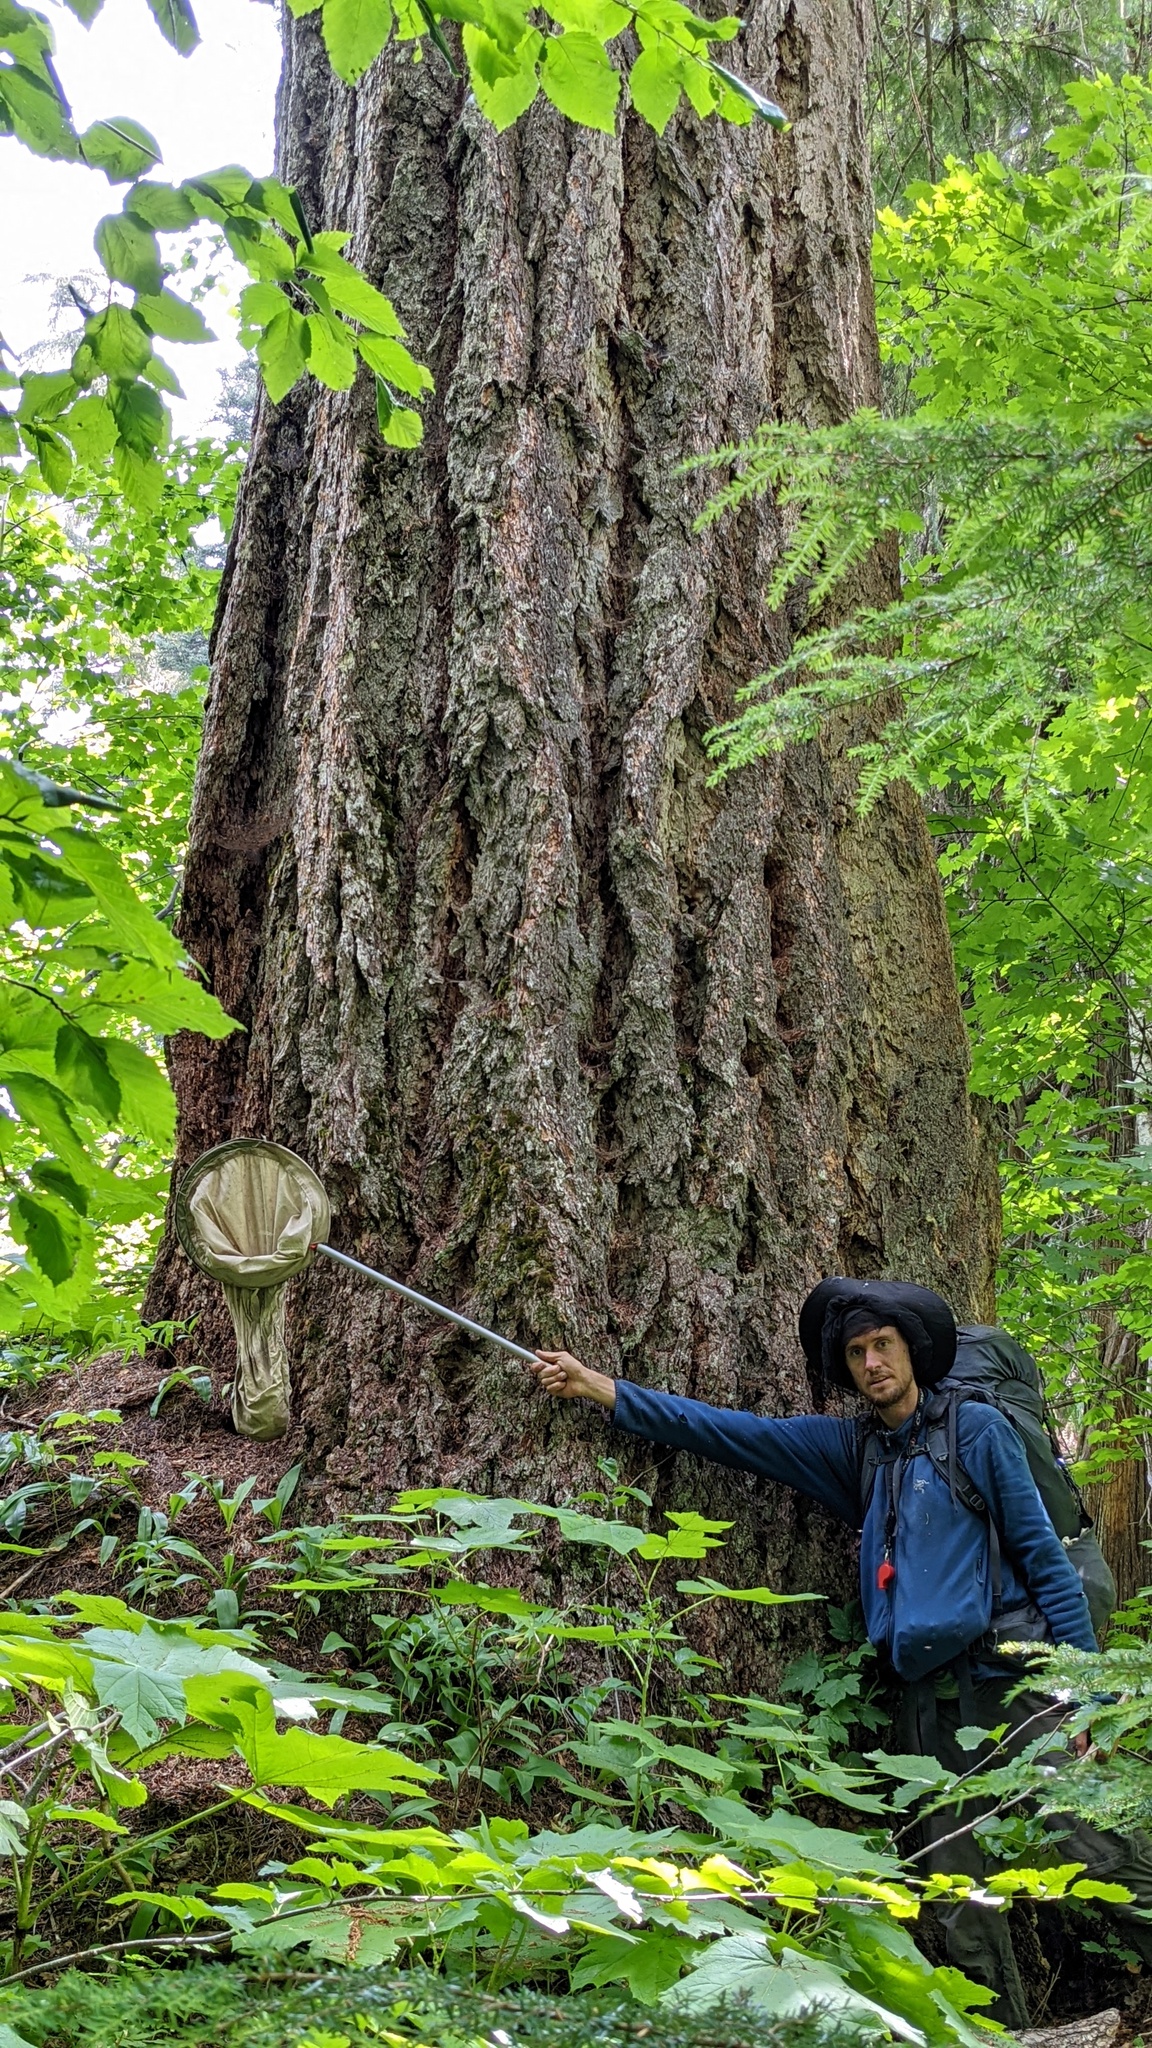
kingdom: Plantae
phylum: Tracheophyta
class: Pinopsida
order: Pinales
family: Pinaceae
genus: Pseudotsuga
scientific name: Pseudotsuga menziesii
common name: Douglas fir
